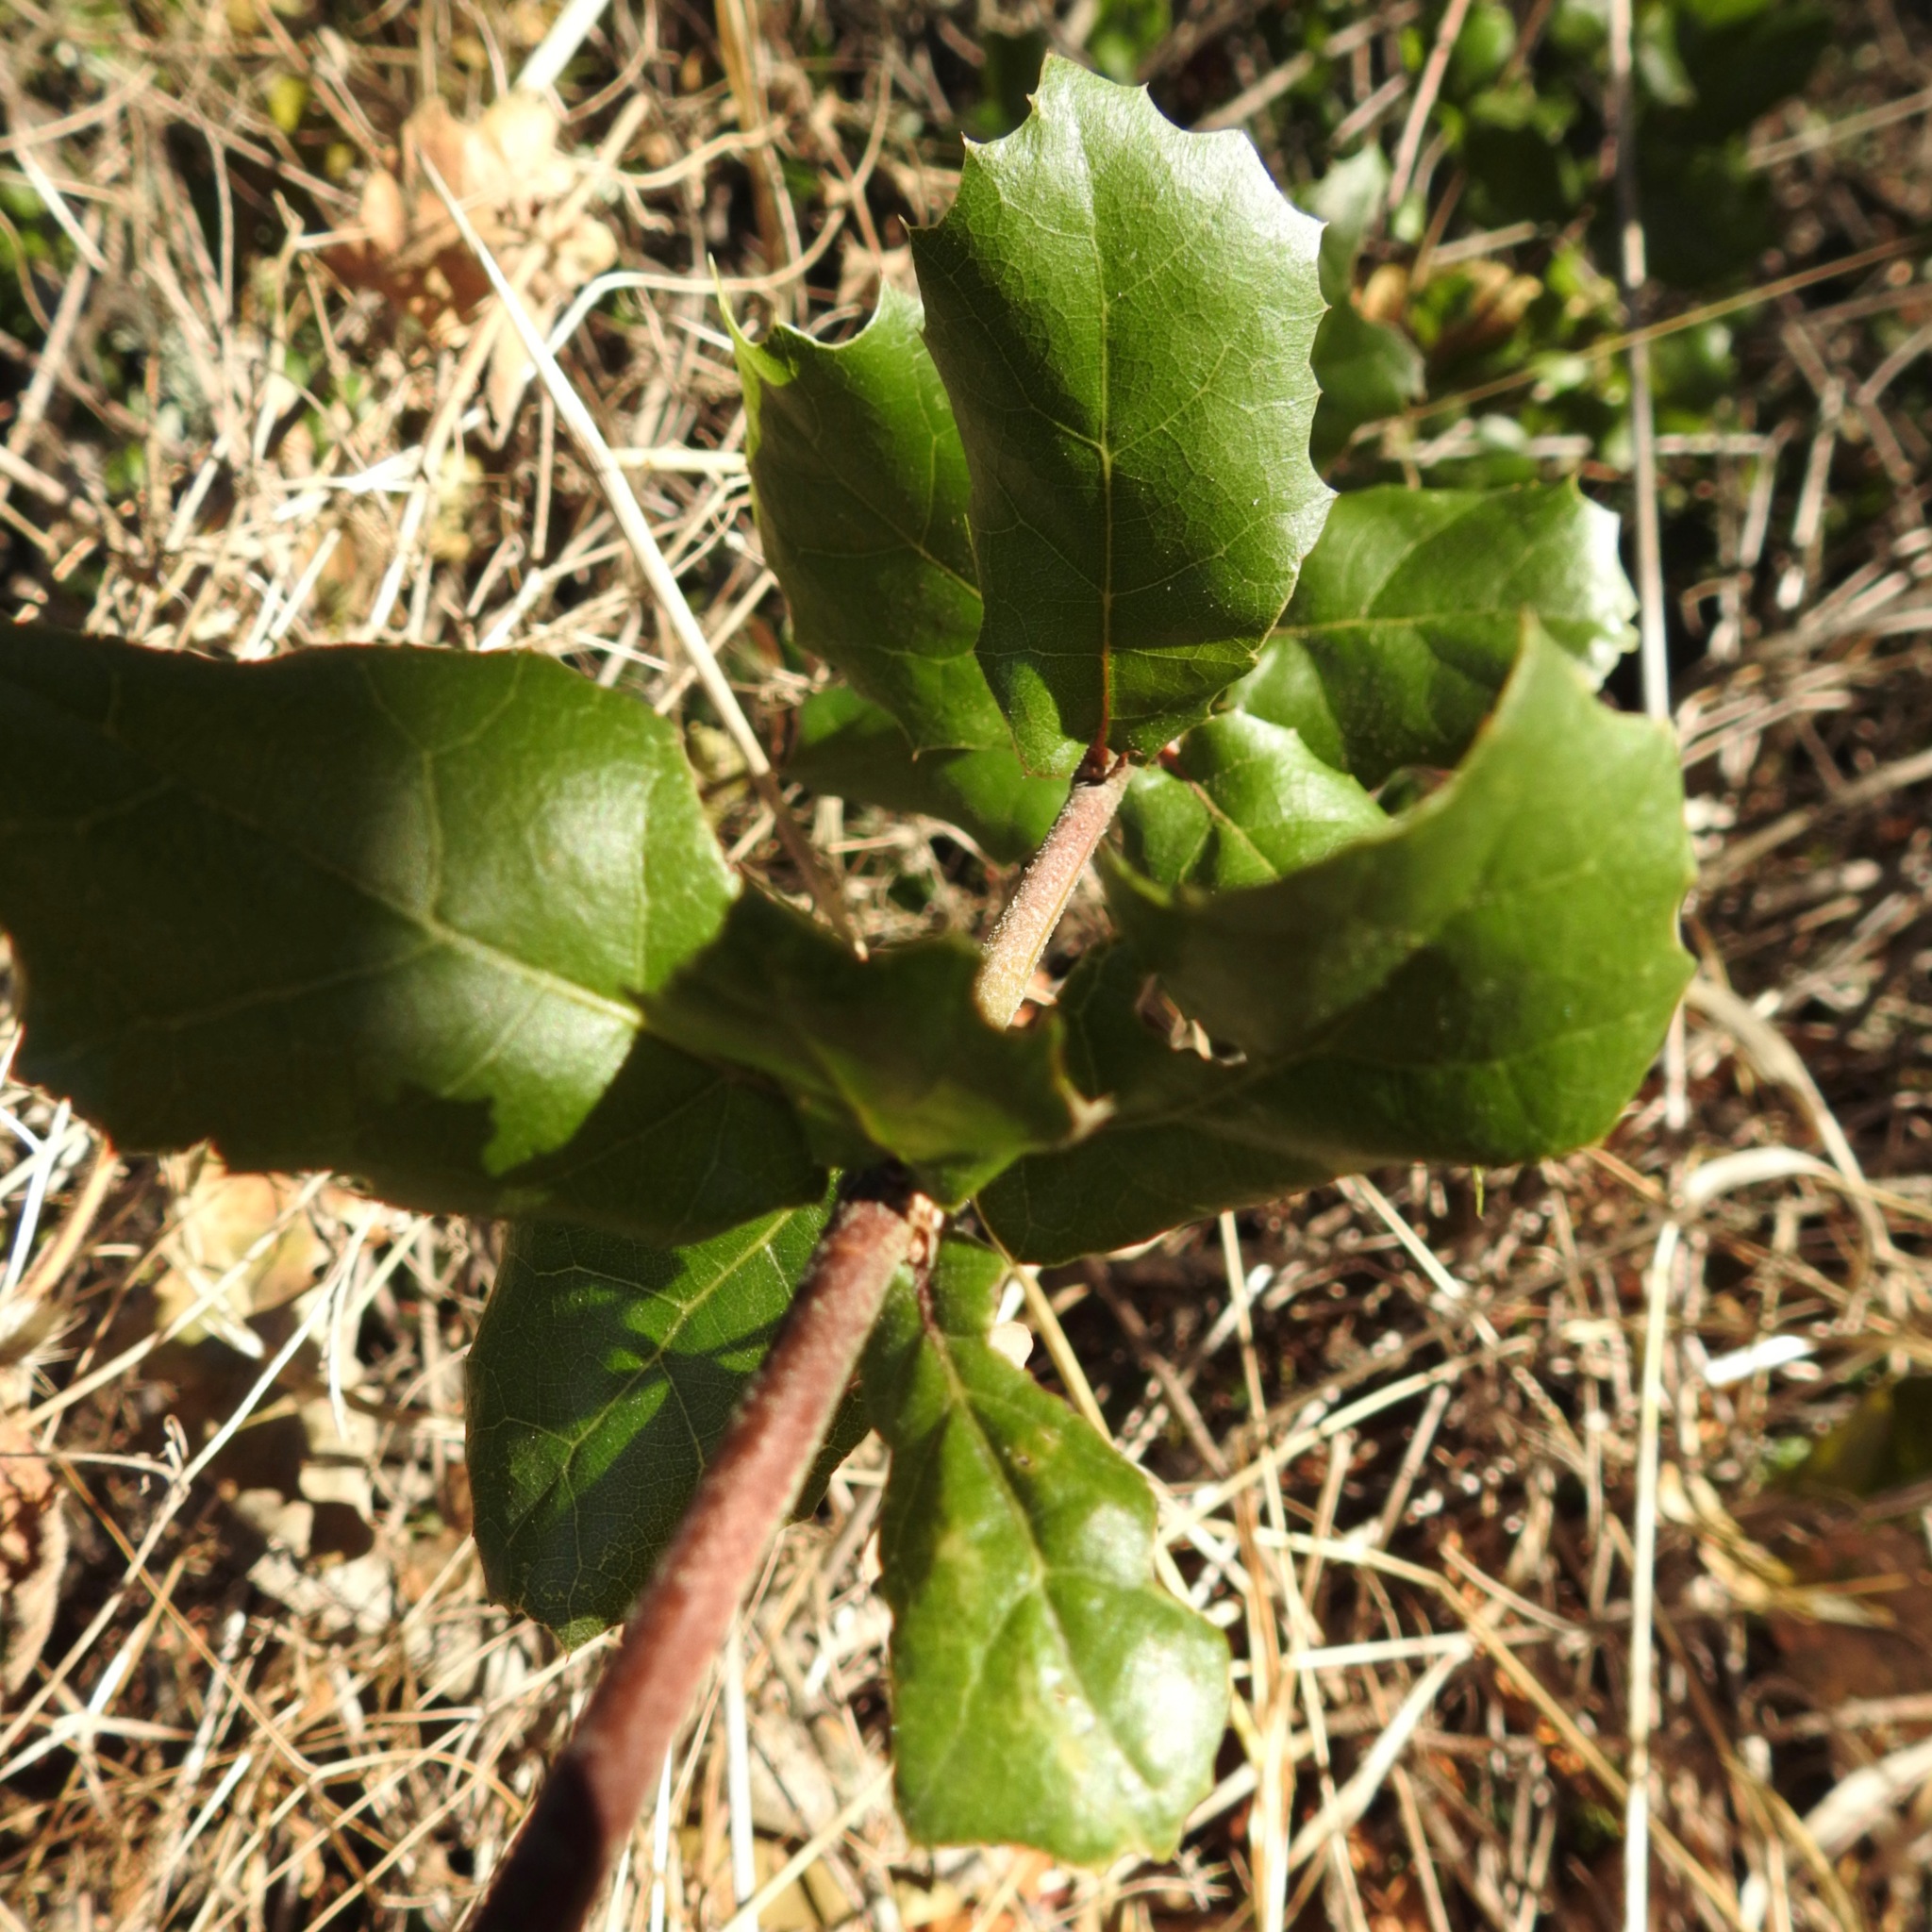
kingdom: Plantae
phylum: Tracheophyta
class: Magnoliopsida
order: Fagales
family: Fagaceae
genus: Quercus
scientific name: Quercus agrifolia
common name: California live oak
